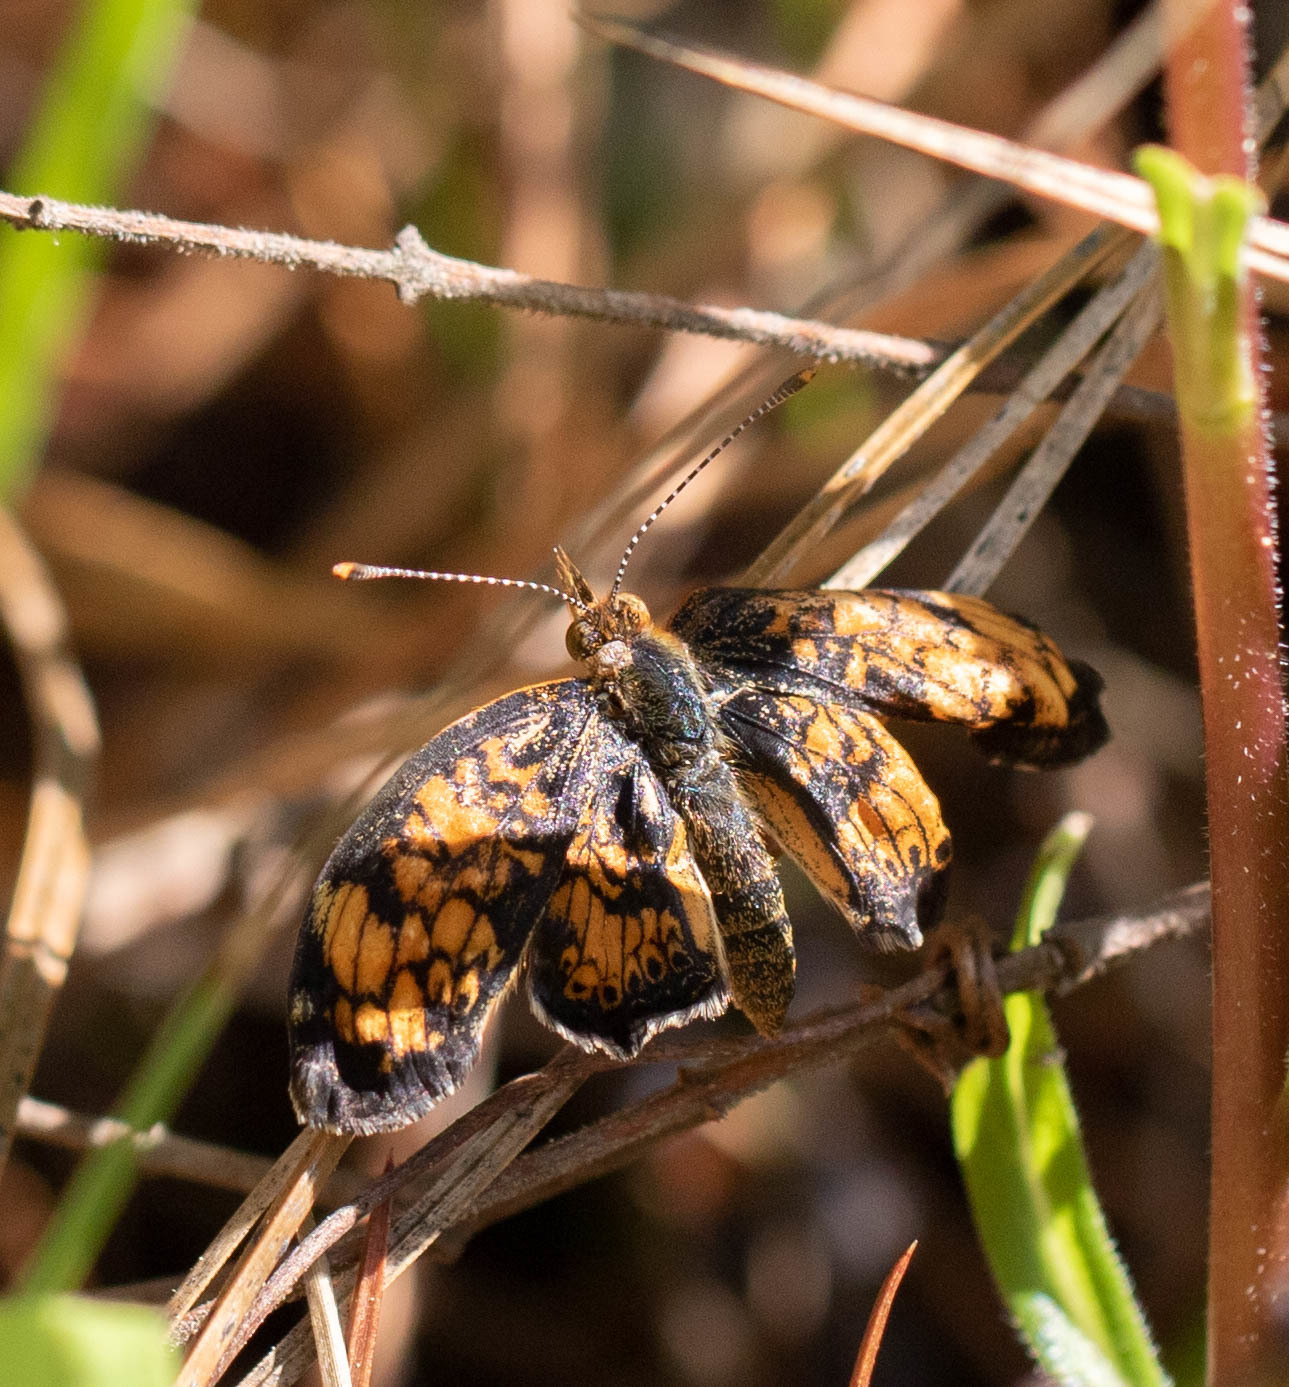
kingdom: Animalia
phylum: Arthropoda
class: Insecta
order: Lepidoptera
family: Nymphalidae
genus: Phyciodes
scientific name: Phyciodes tharos
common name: Pearl crescent
